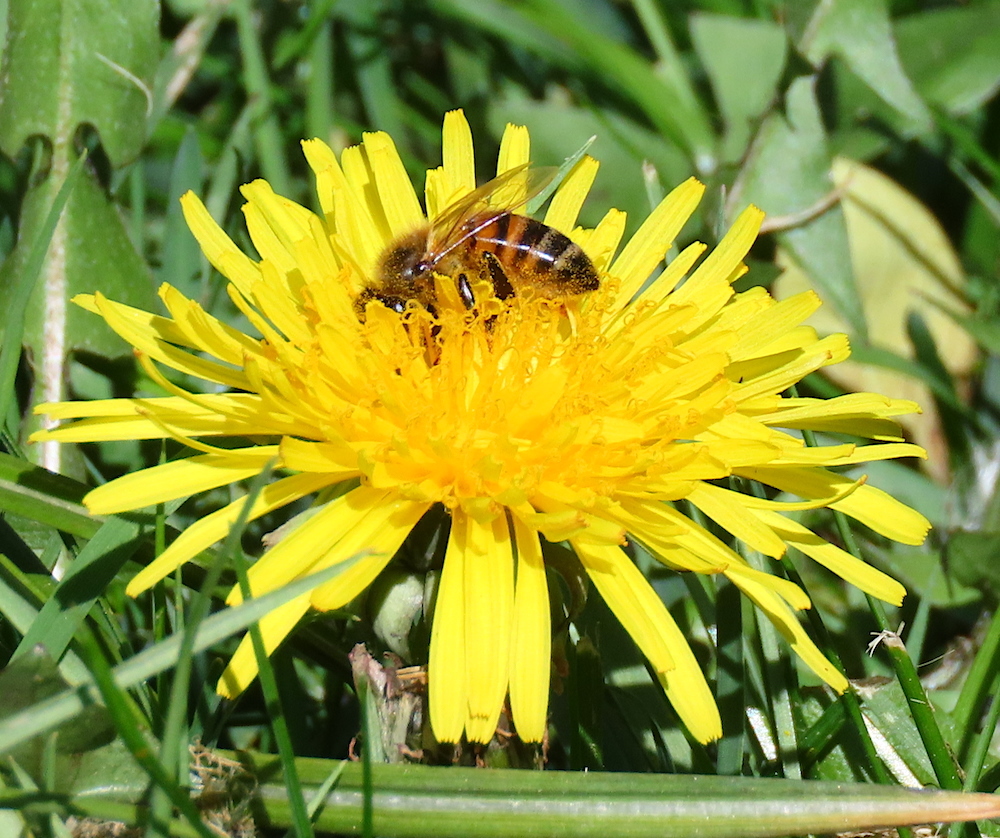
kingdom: Animalia
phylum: Arthropoda
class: Insecta
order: Hymenoptera
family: Apidae
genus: Apis
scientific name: Apis mellifera
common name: Honey bee
